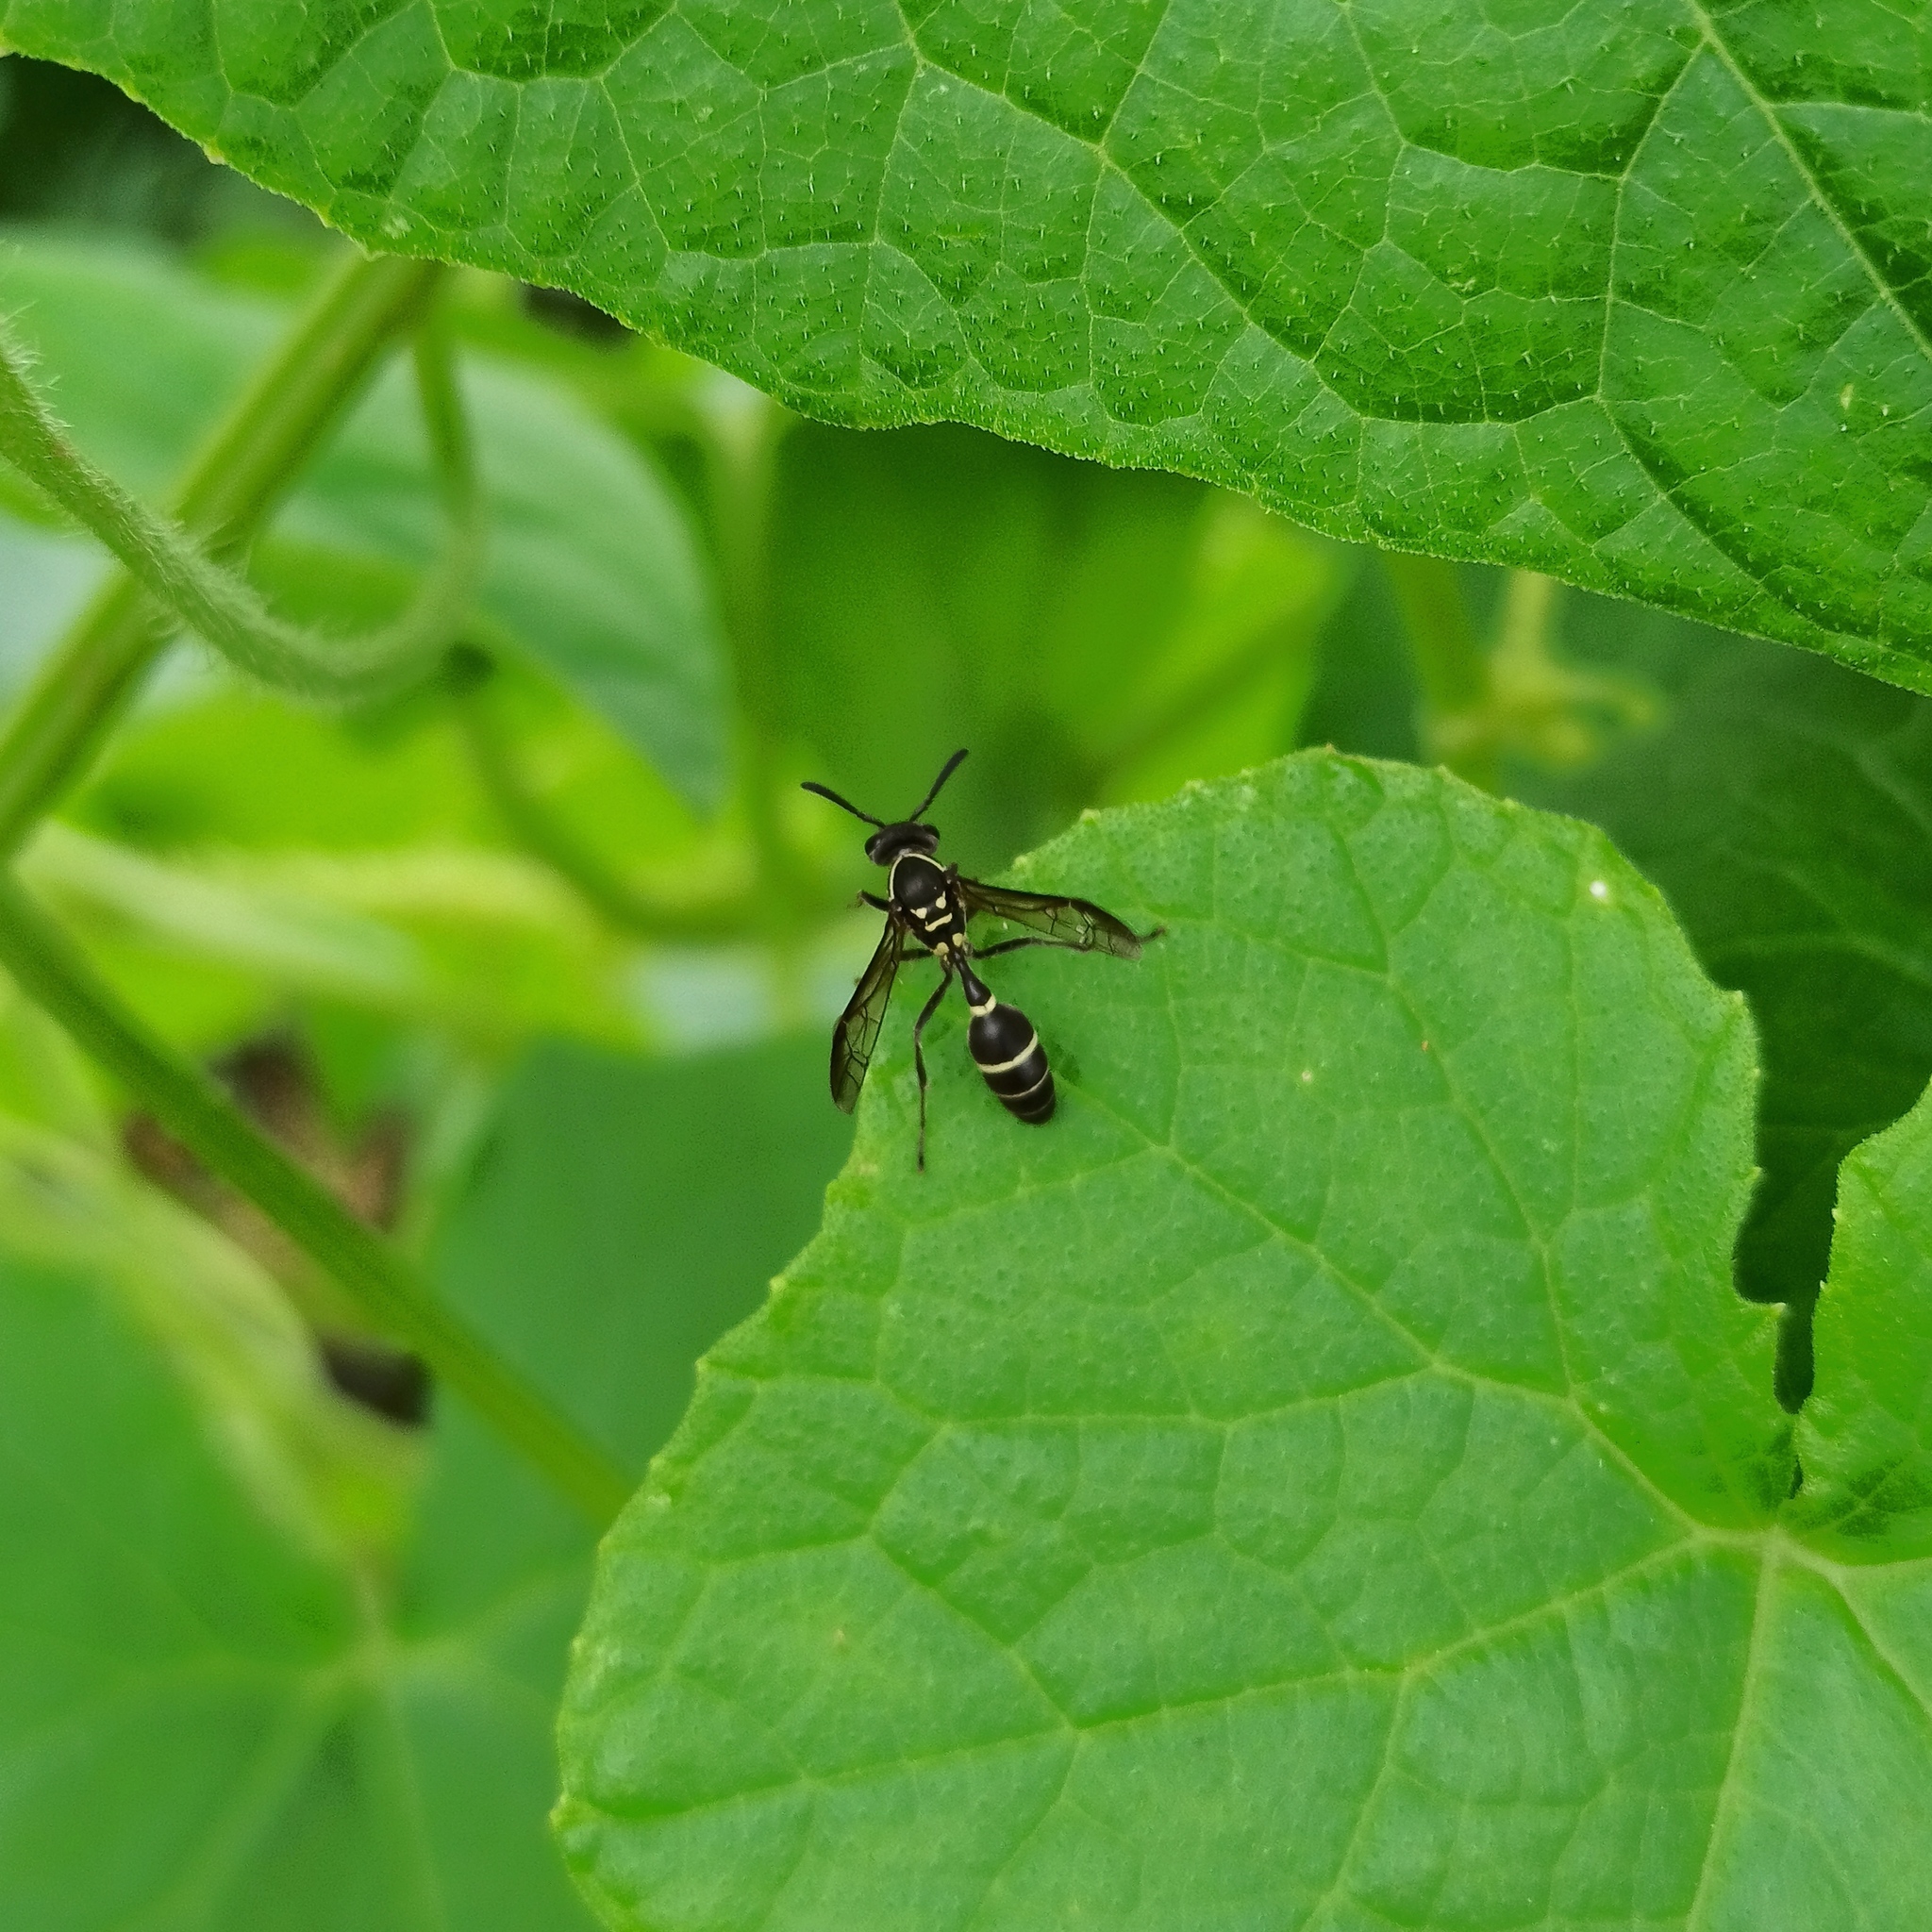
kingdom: Animalia
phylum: Arthropoda
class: Insecta
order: Hymenoptera
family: Eumenidae
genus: Polybia
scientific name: Polybia plebeja
